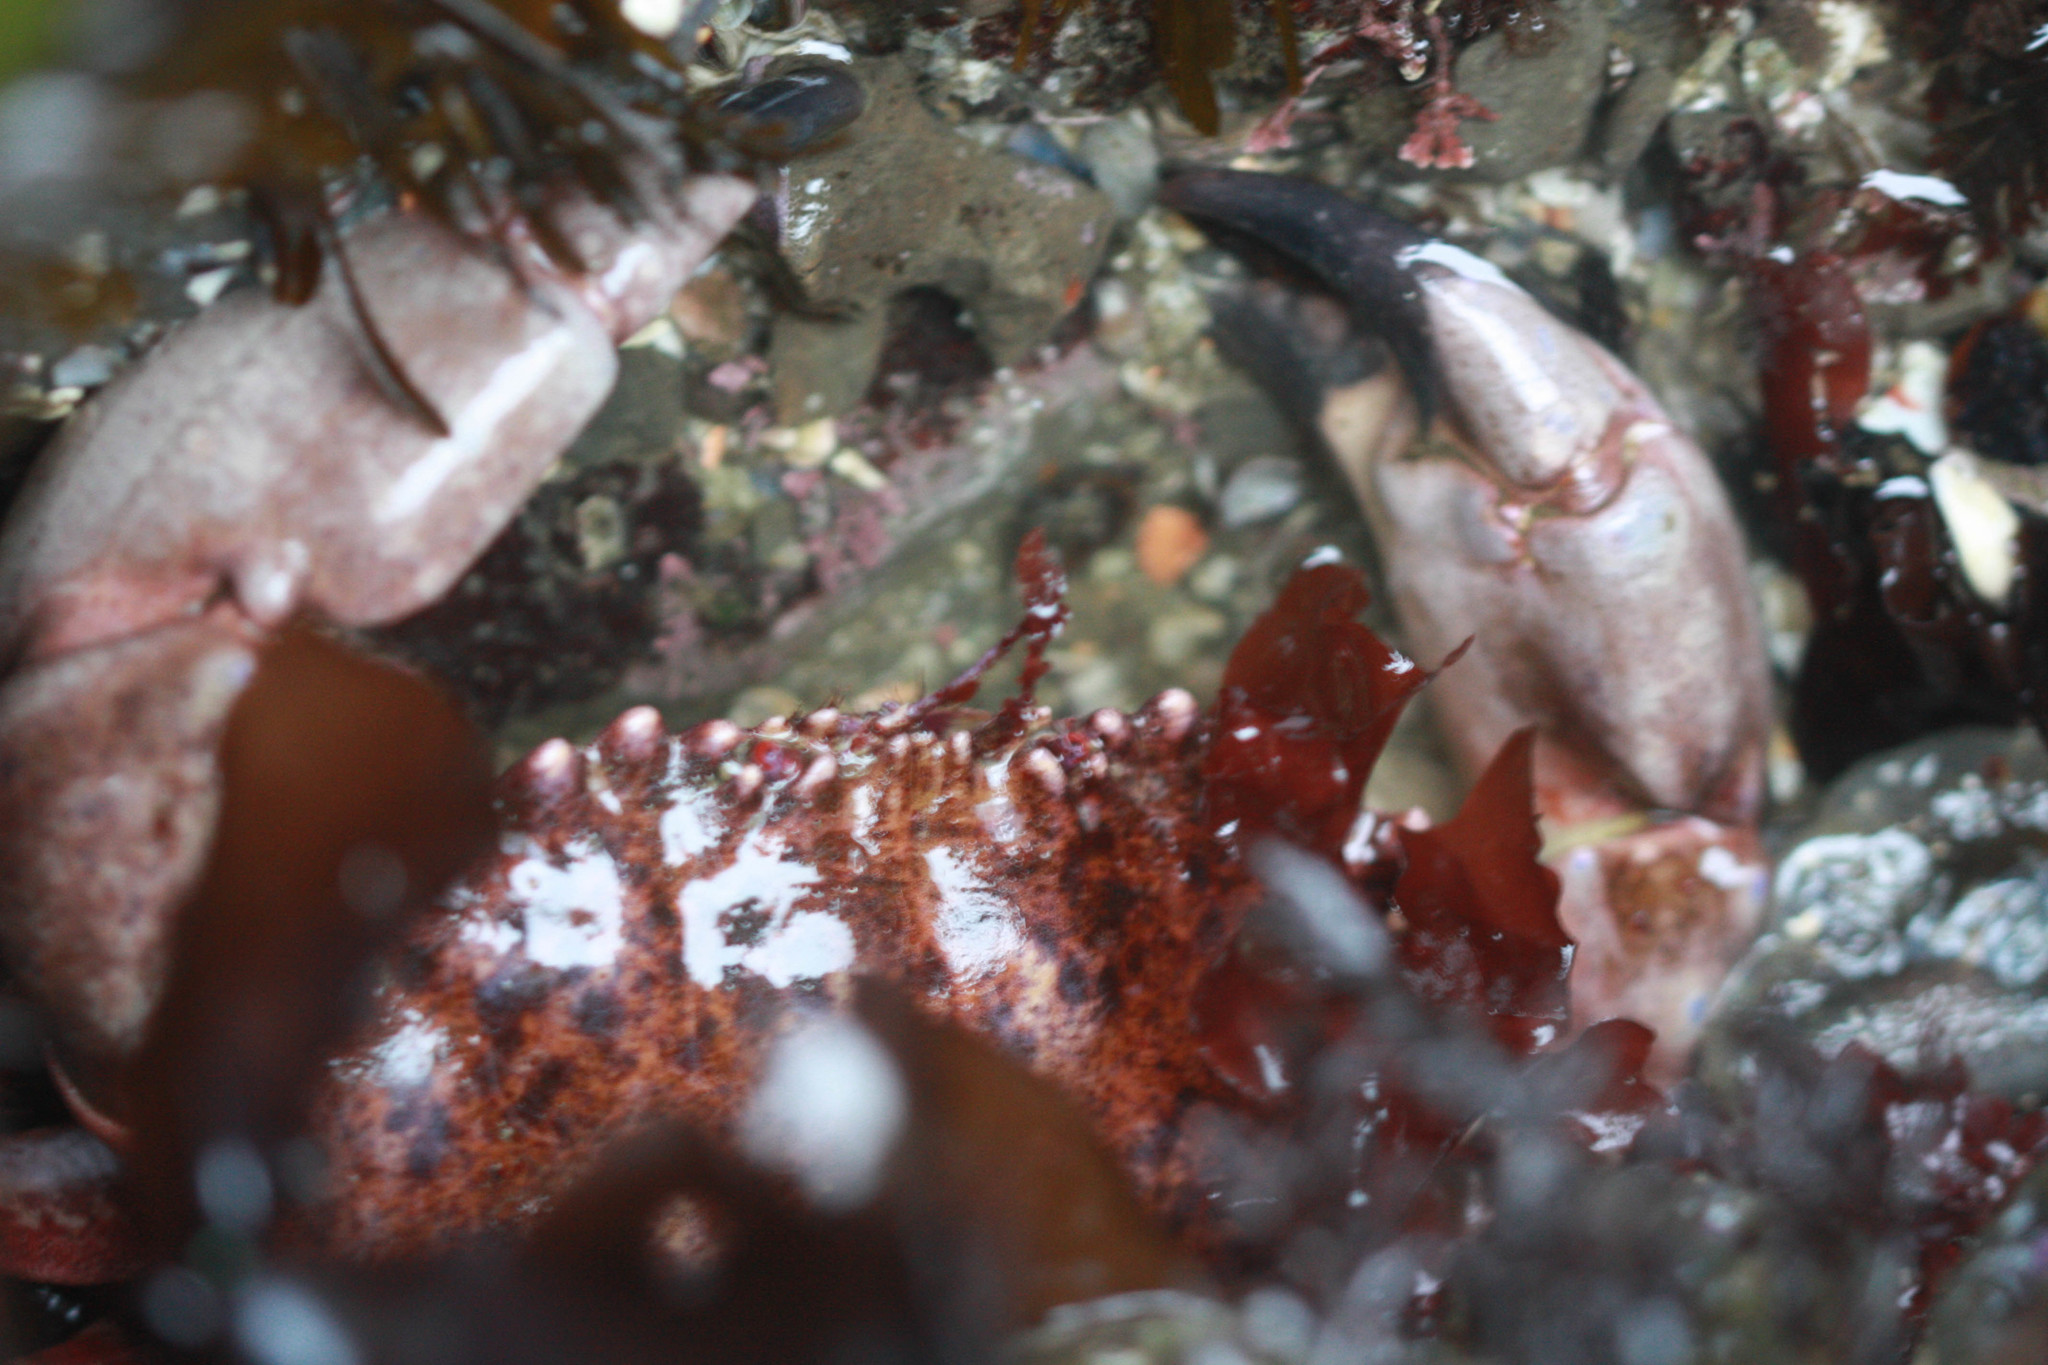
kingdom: Animalia
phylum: Arthropoda
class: Malacostraca
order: Decapoda
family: Cancridae
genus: Romaleon
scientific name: Romaleon antennarium
